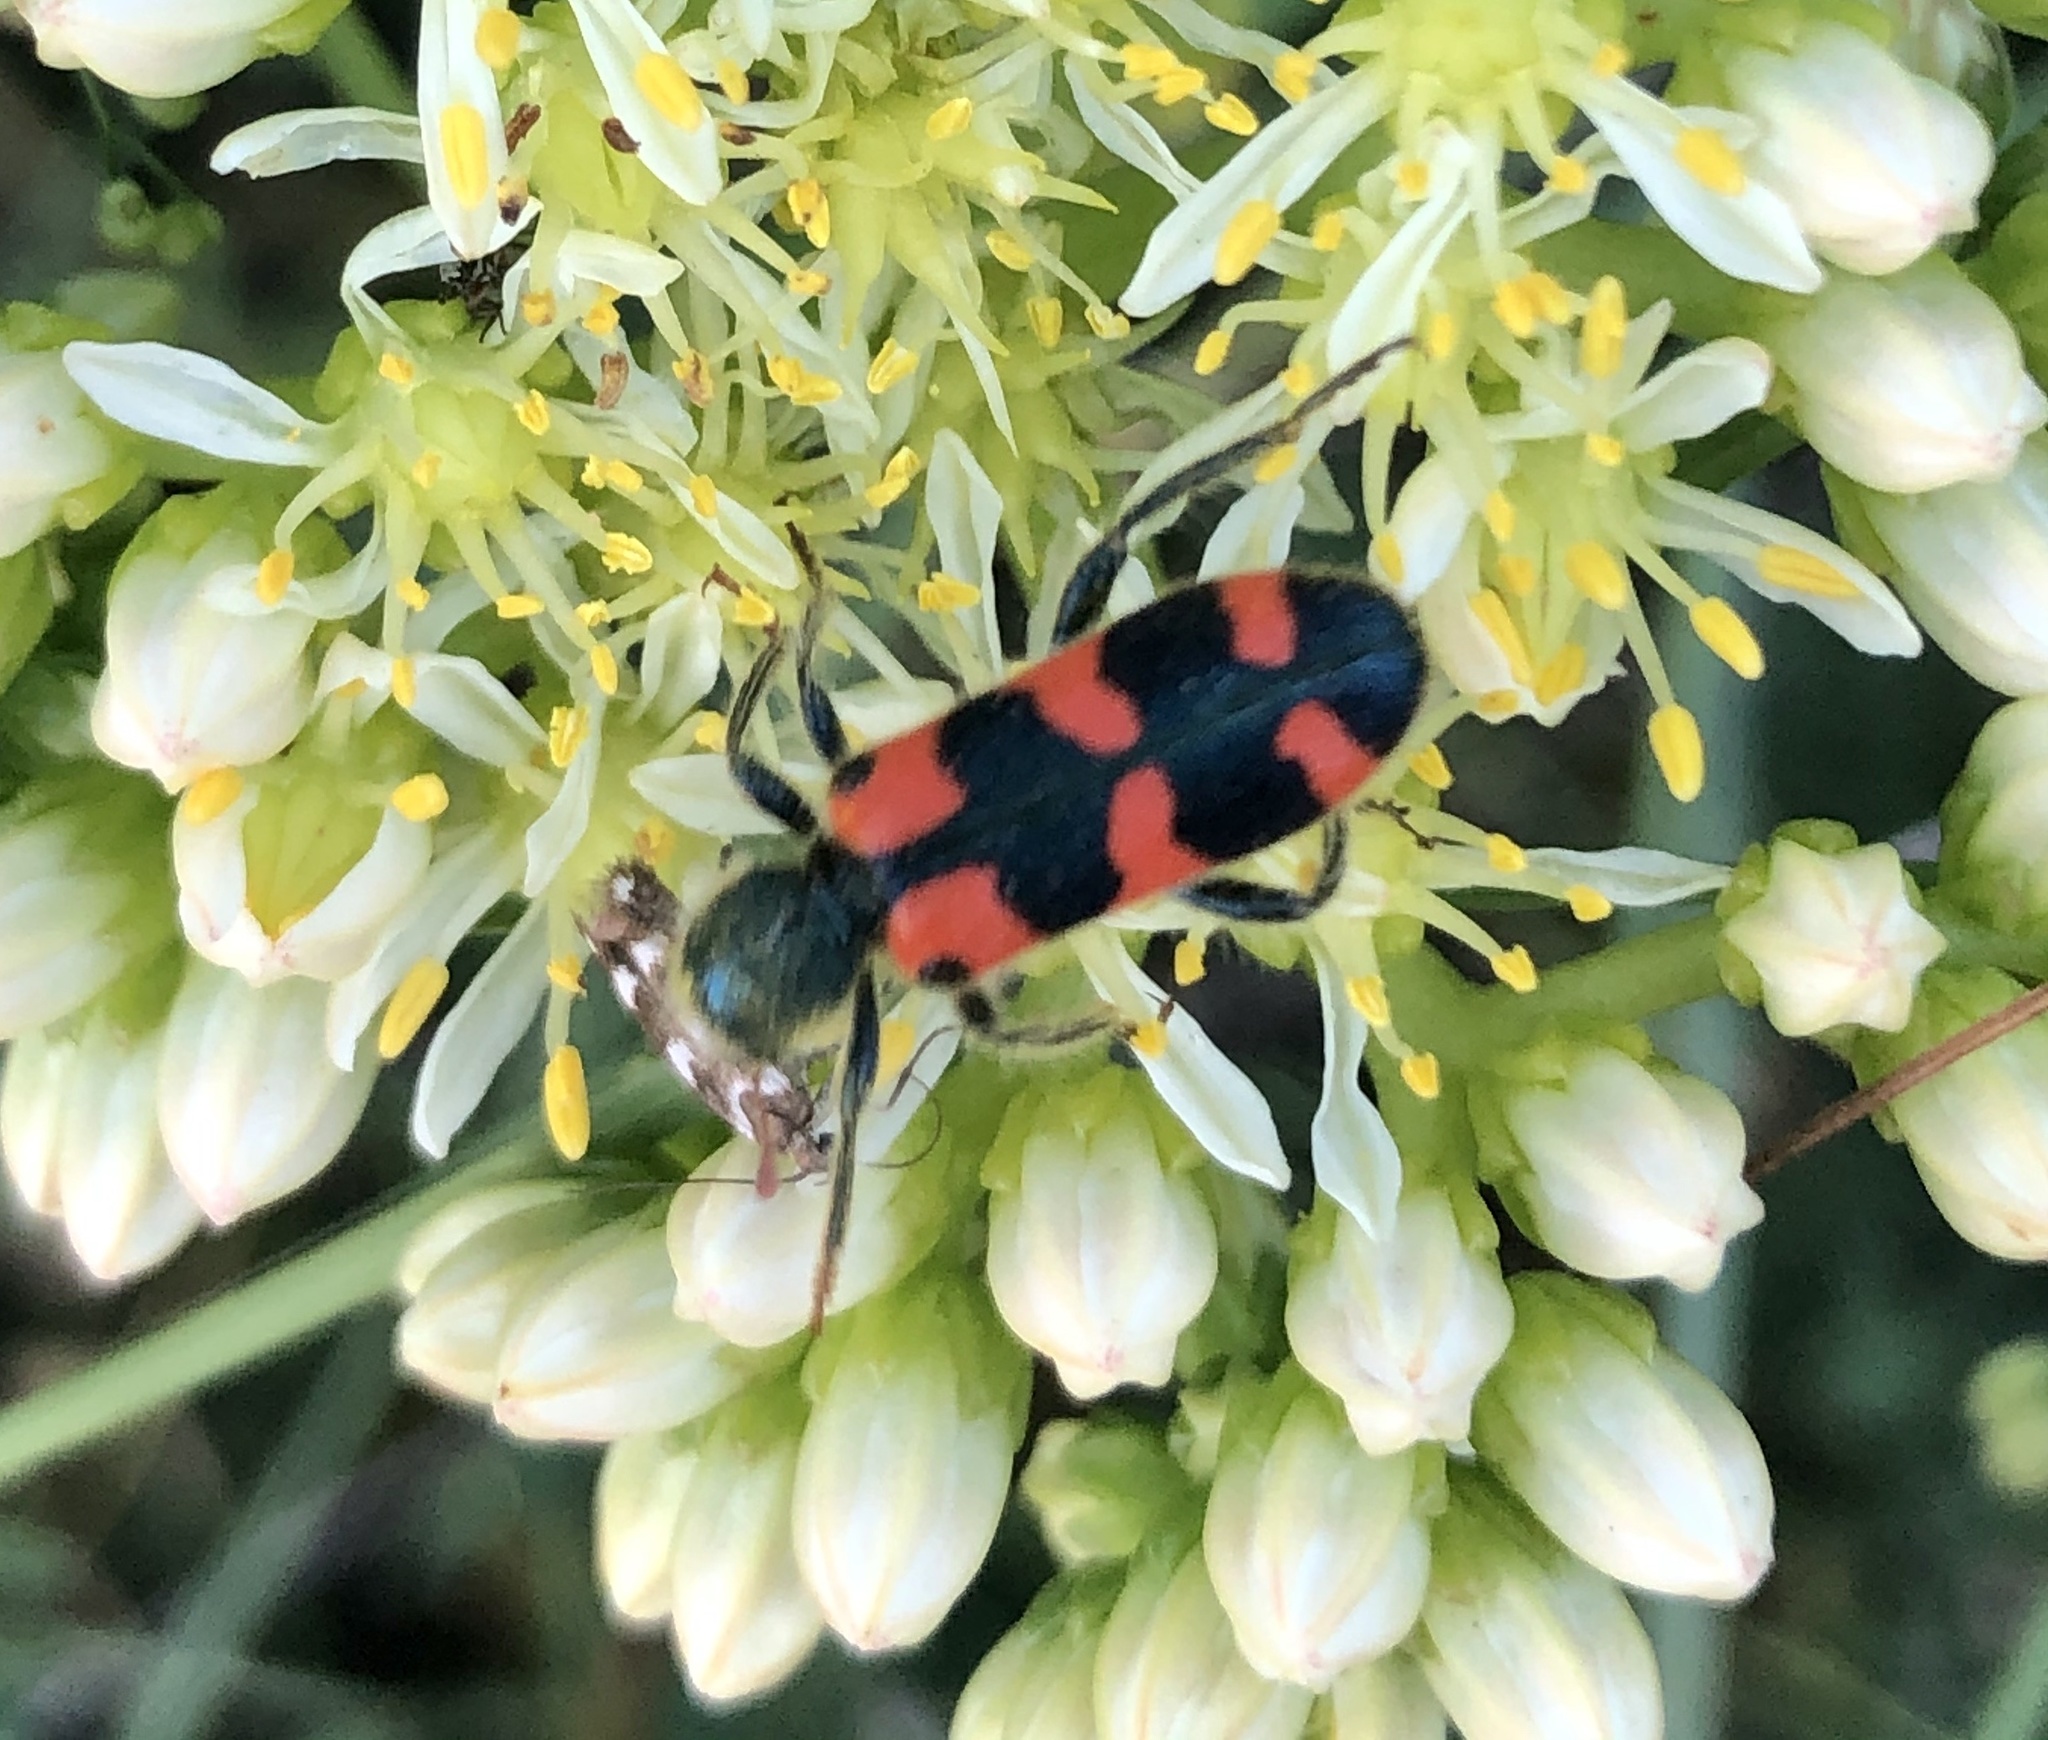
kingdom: Animalia
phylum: Arthropoda
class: Insecta
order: Coleoptera
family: Cleridae
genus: Trichodes
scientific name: Trichodes leucopsideus
